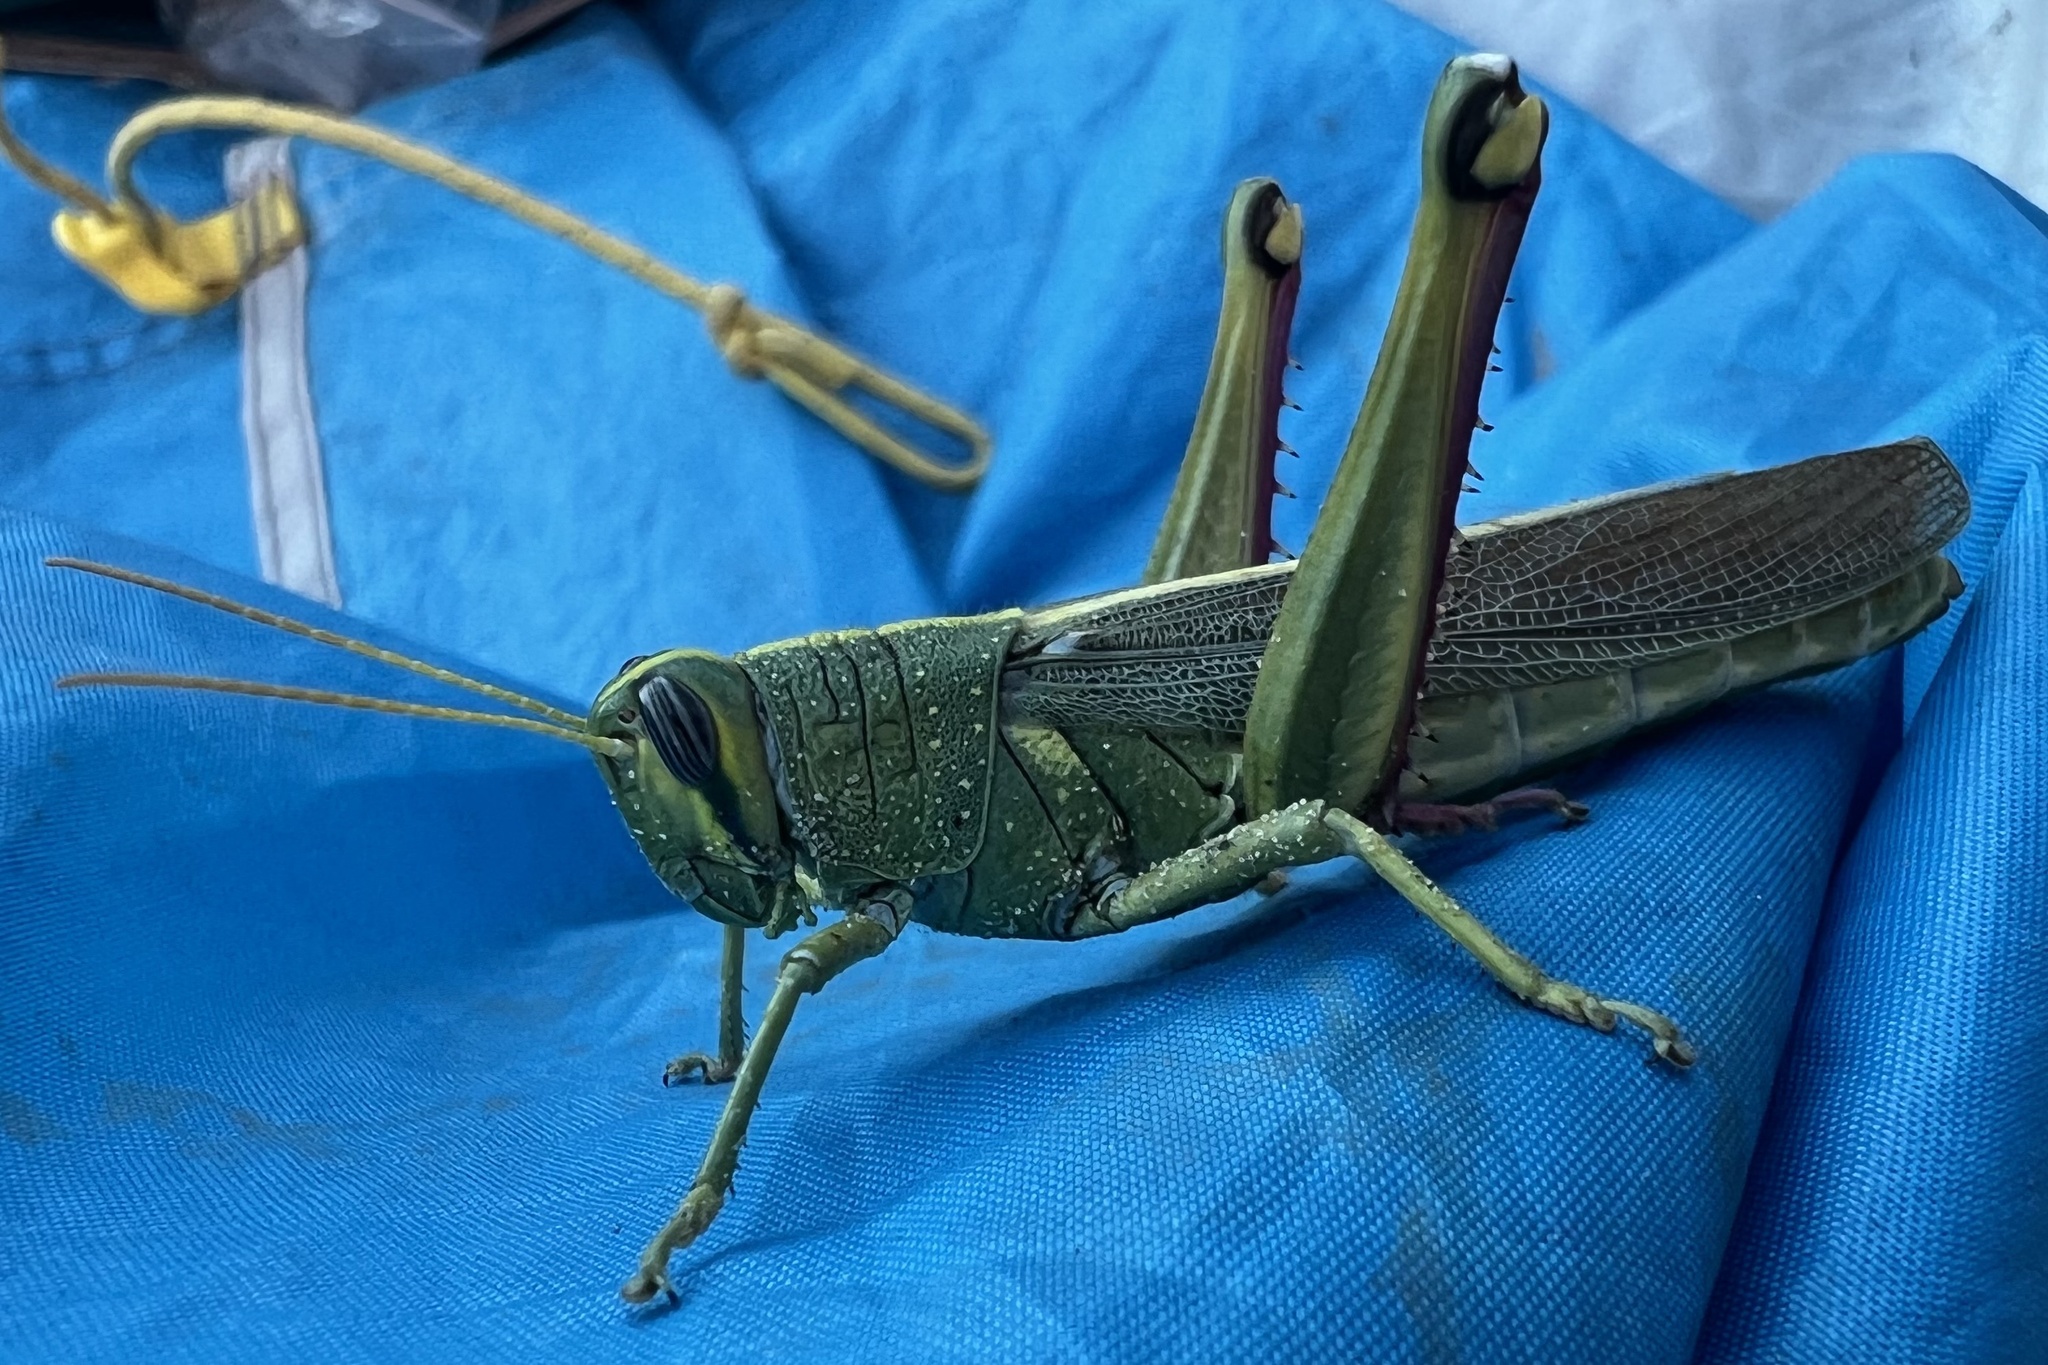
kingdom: Animalia
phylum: Arthropoda
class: Insecta
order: Orthoptera
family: Acrididae
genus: Schistocerca
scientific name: Schistocerca lineata
